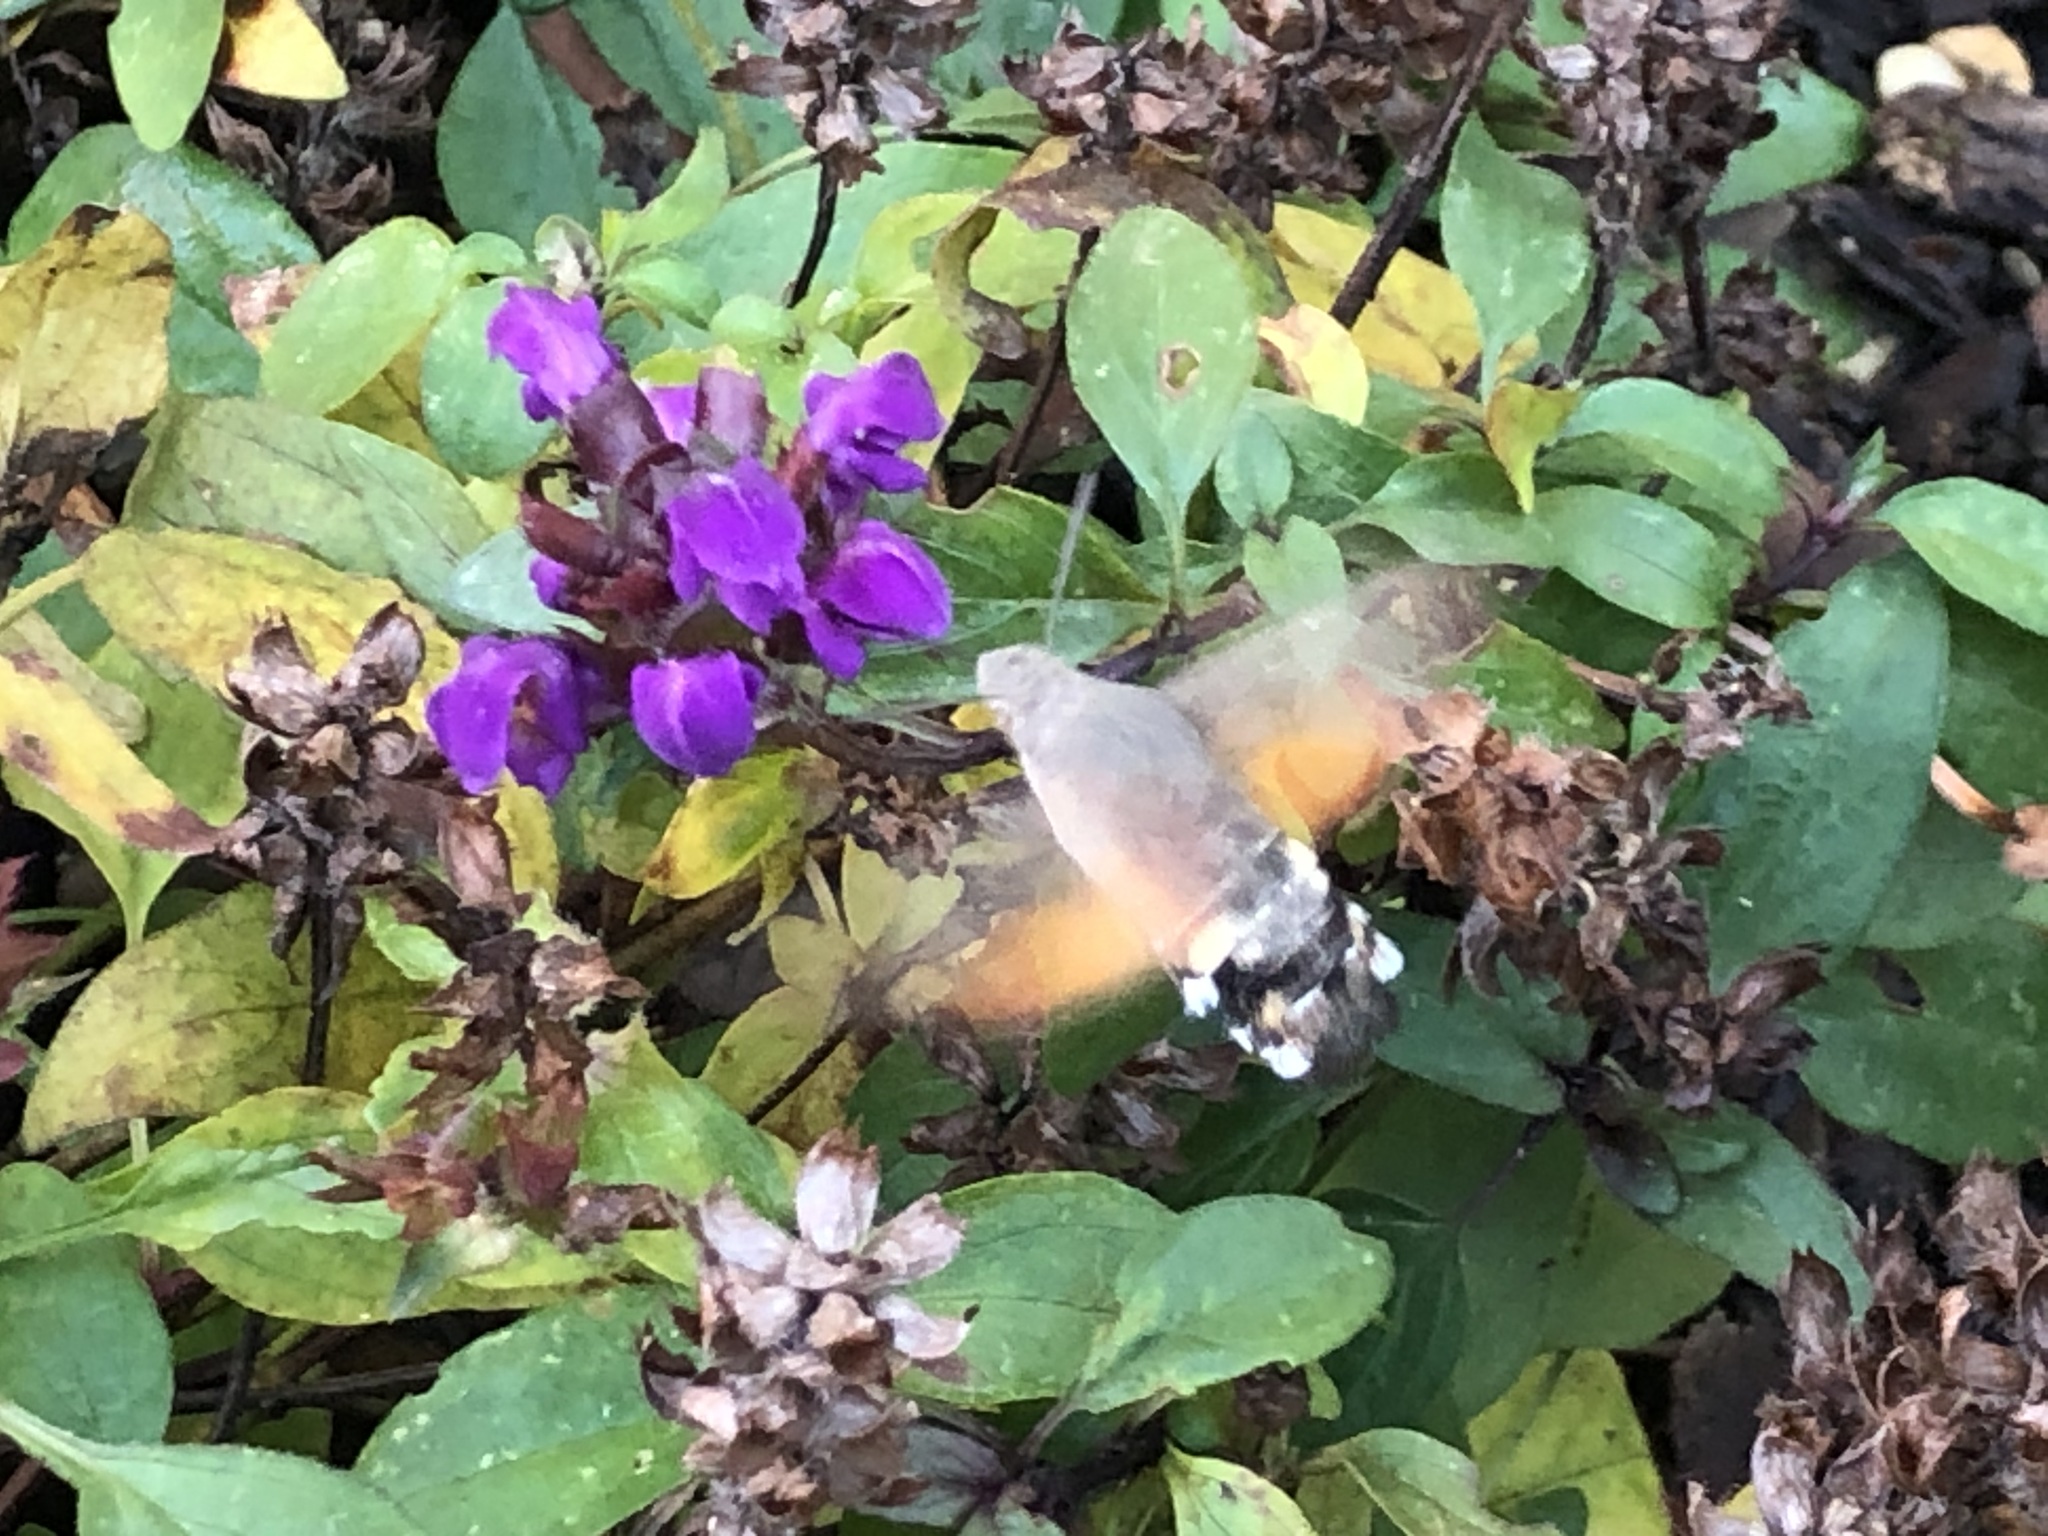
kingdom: Animalia
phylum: Arthropoda
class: Insecta
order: Lepidoptera
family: Sphingidae
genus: Macroglossum
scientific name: Macroglossum stellatarum
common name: Humming-bird hawk-moth
